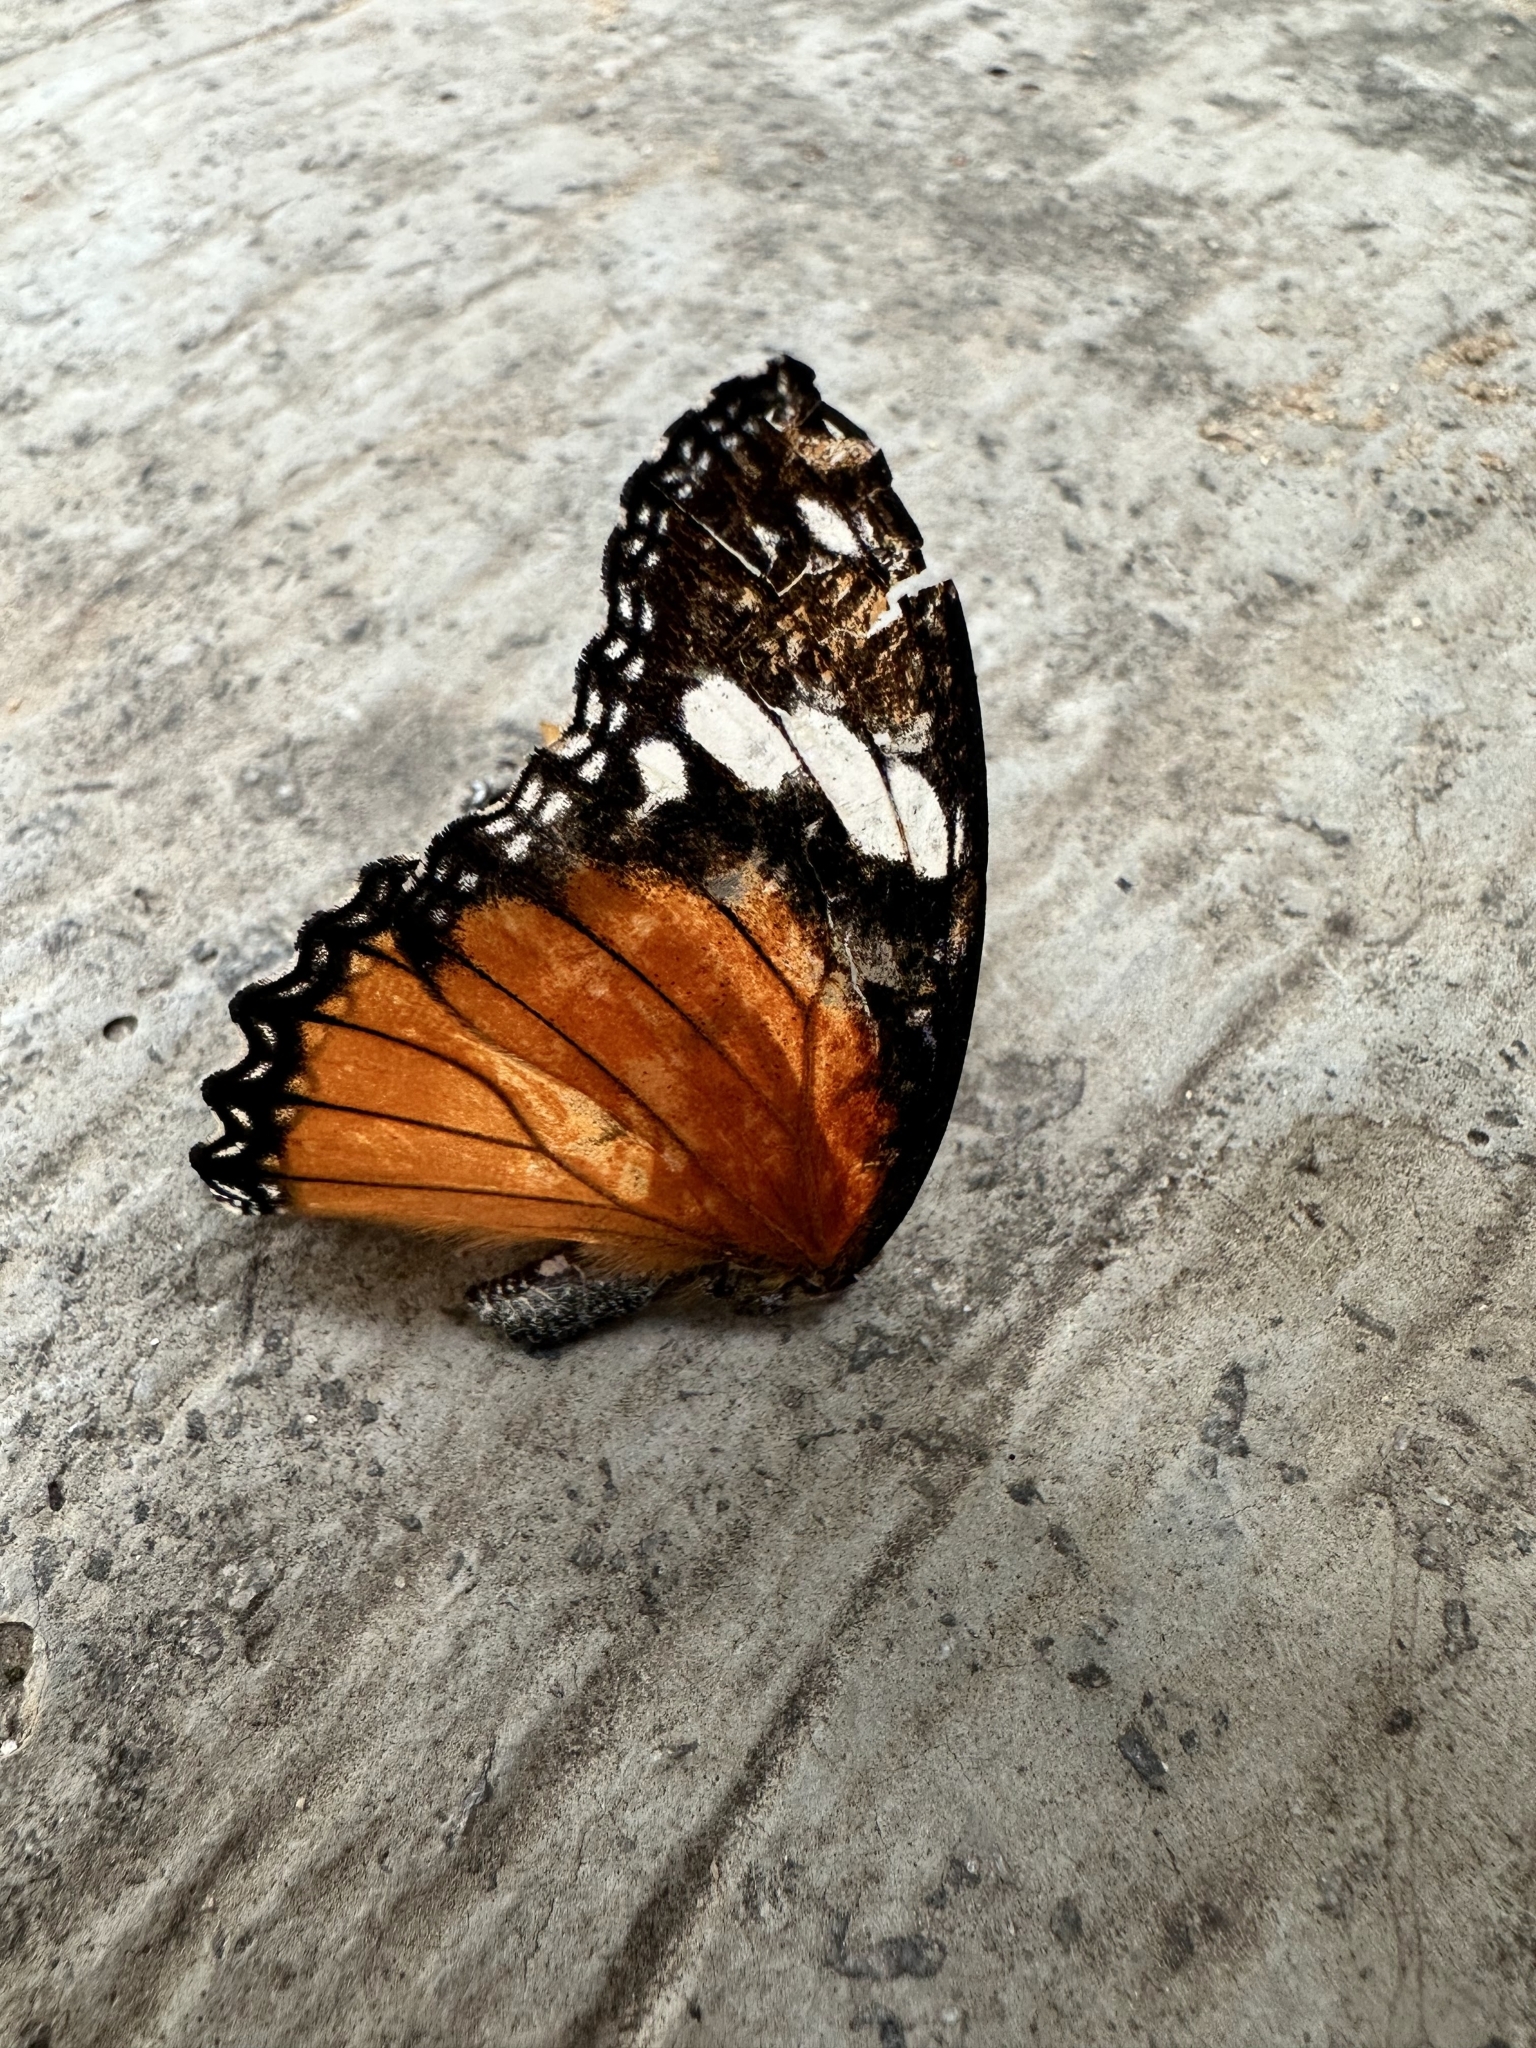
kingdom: Animalia
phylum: Arthropoda
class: Insecta
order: Lepidoptera
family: Nymphalidae
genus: Hypolimnas
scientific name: Hypolimnas misippus
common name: False plain tiger
